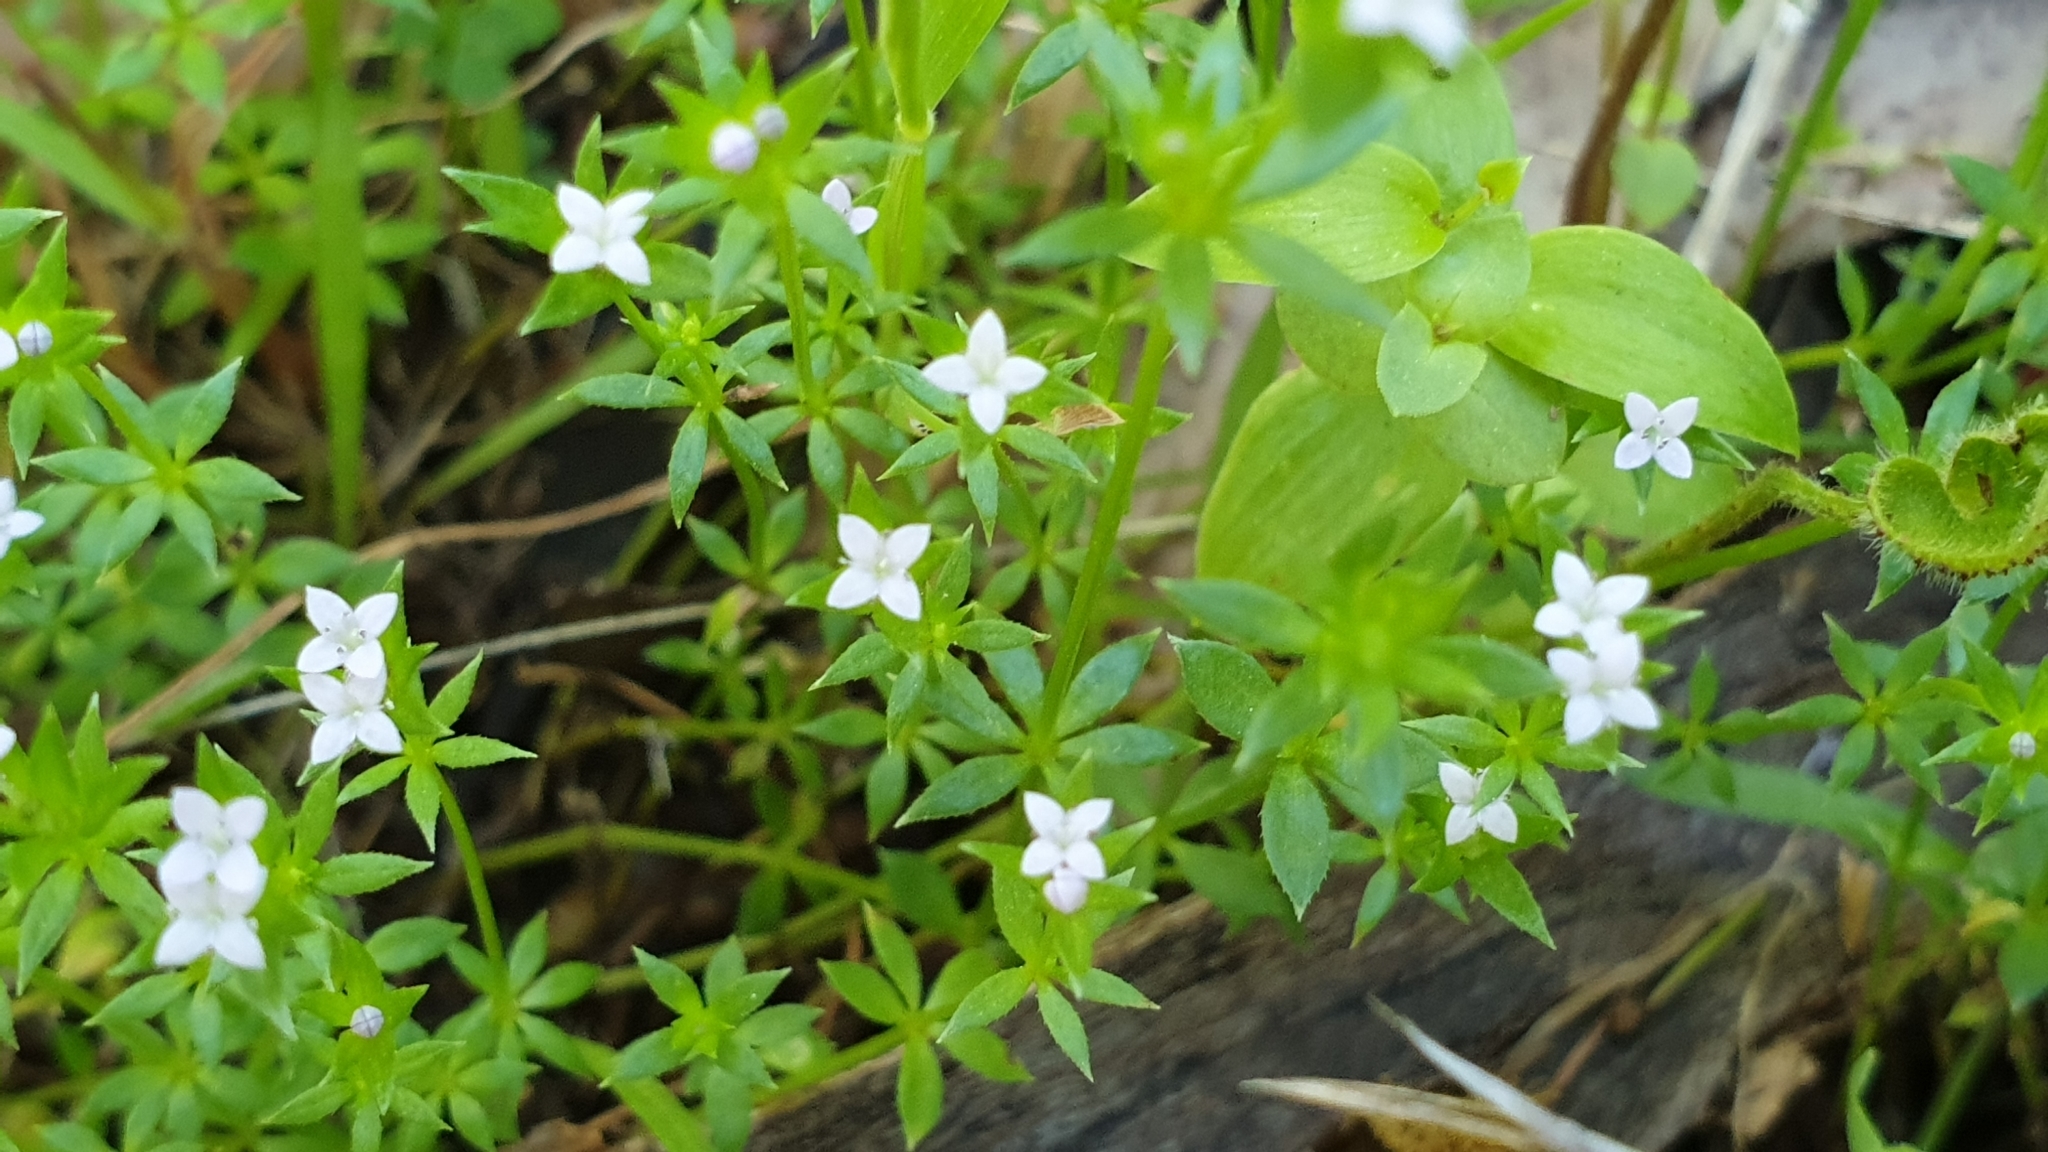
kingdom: Plantae
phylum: Tracheophyta
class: Magnoliopsida
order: Gentianales
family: Rubiaceae
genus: Sherardia
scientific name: Sherardia arvensis
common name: Field madder
